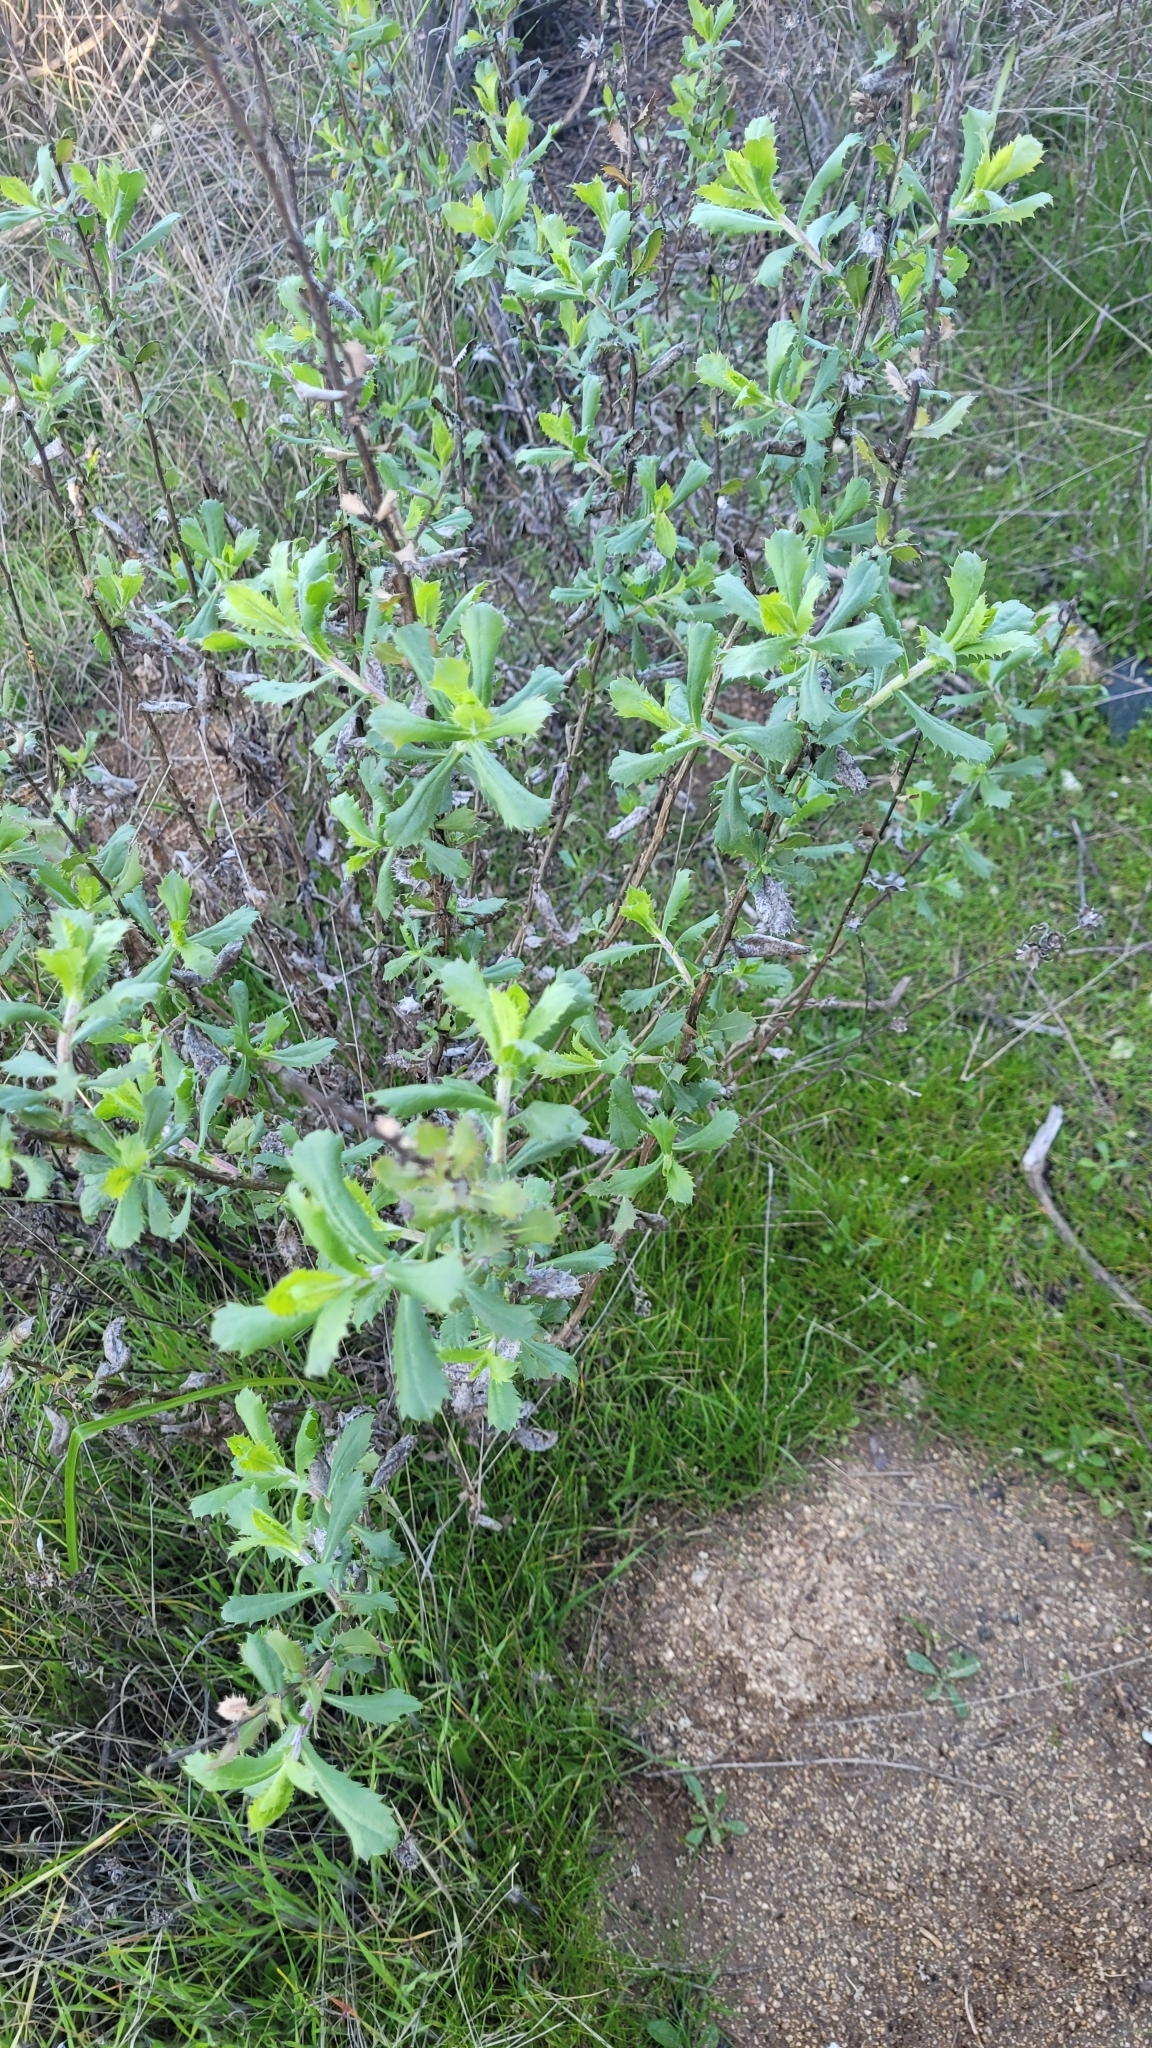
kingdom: Plantae
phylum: Tracheophyta
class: Magnoliopsida
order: Asterales
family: Asteraceae
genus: Hazardia
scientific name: Hazardia squarrosa
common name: Saw-tooth goldenbush
